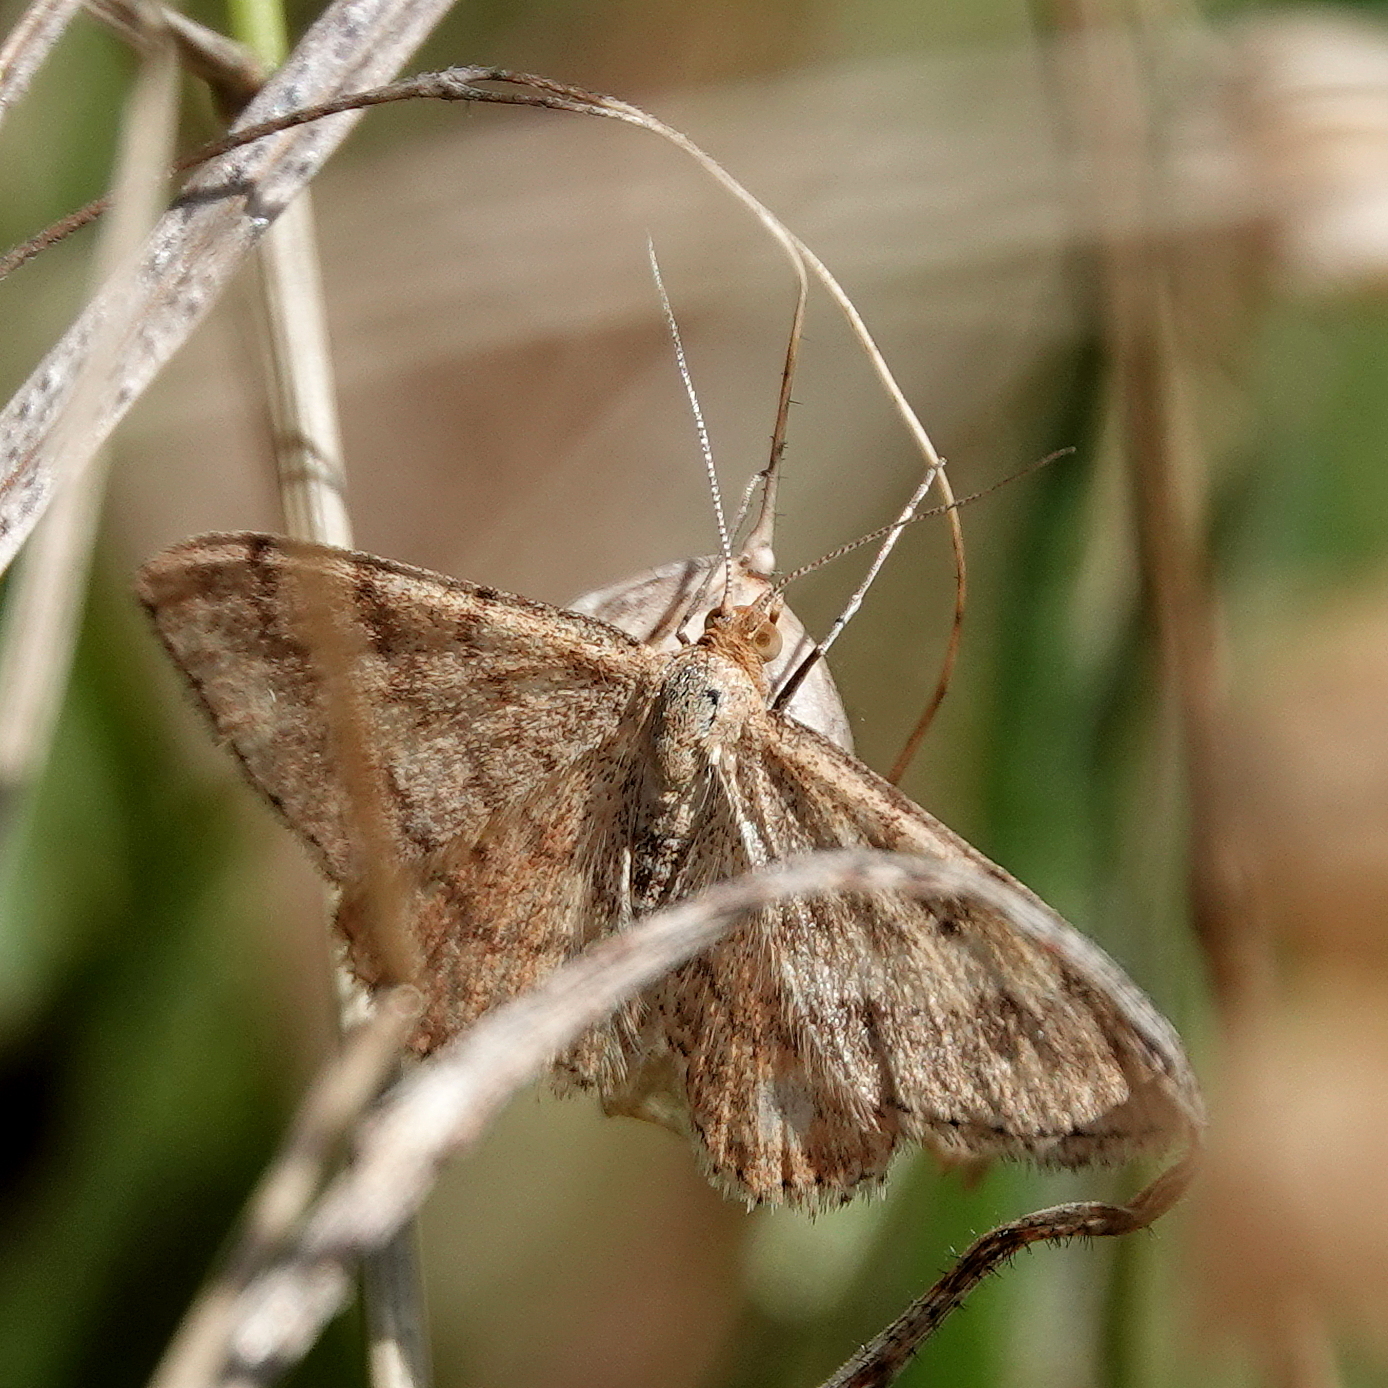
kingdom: Animalia
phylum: Arthropoda
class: Insecta
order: Lepidoptera
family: Geometridae
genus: Scopula
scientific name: Scopula rubraria
